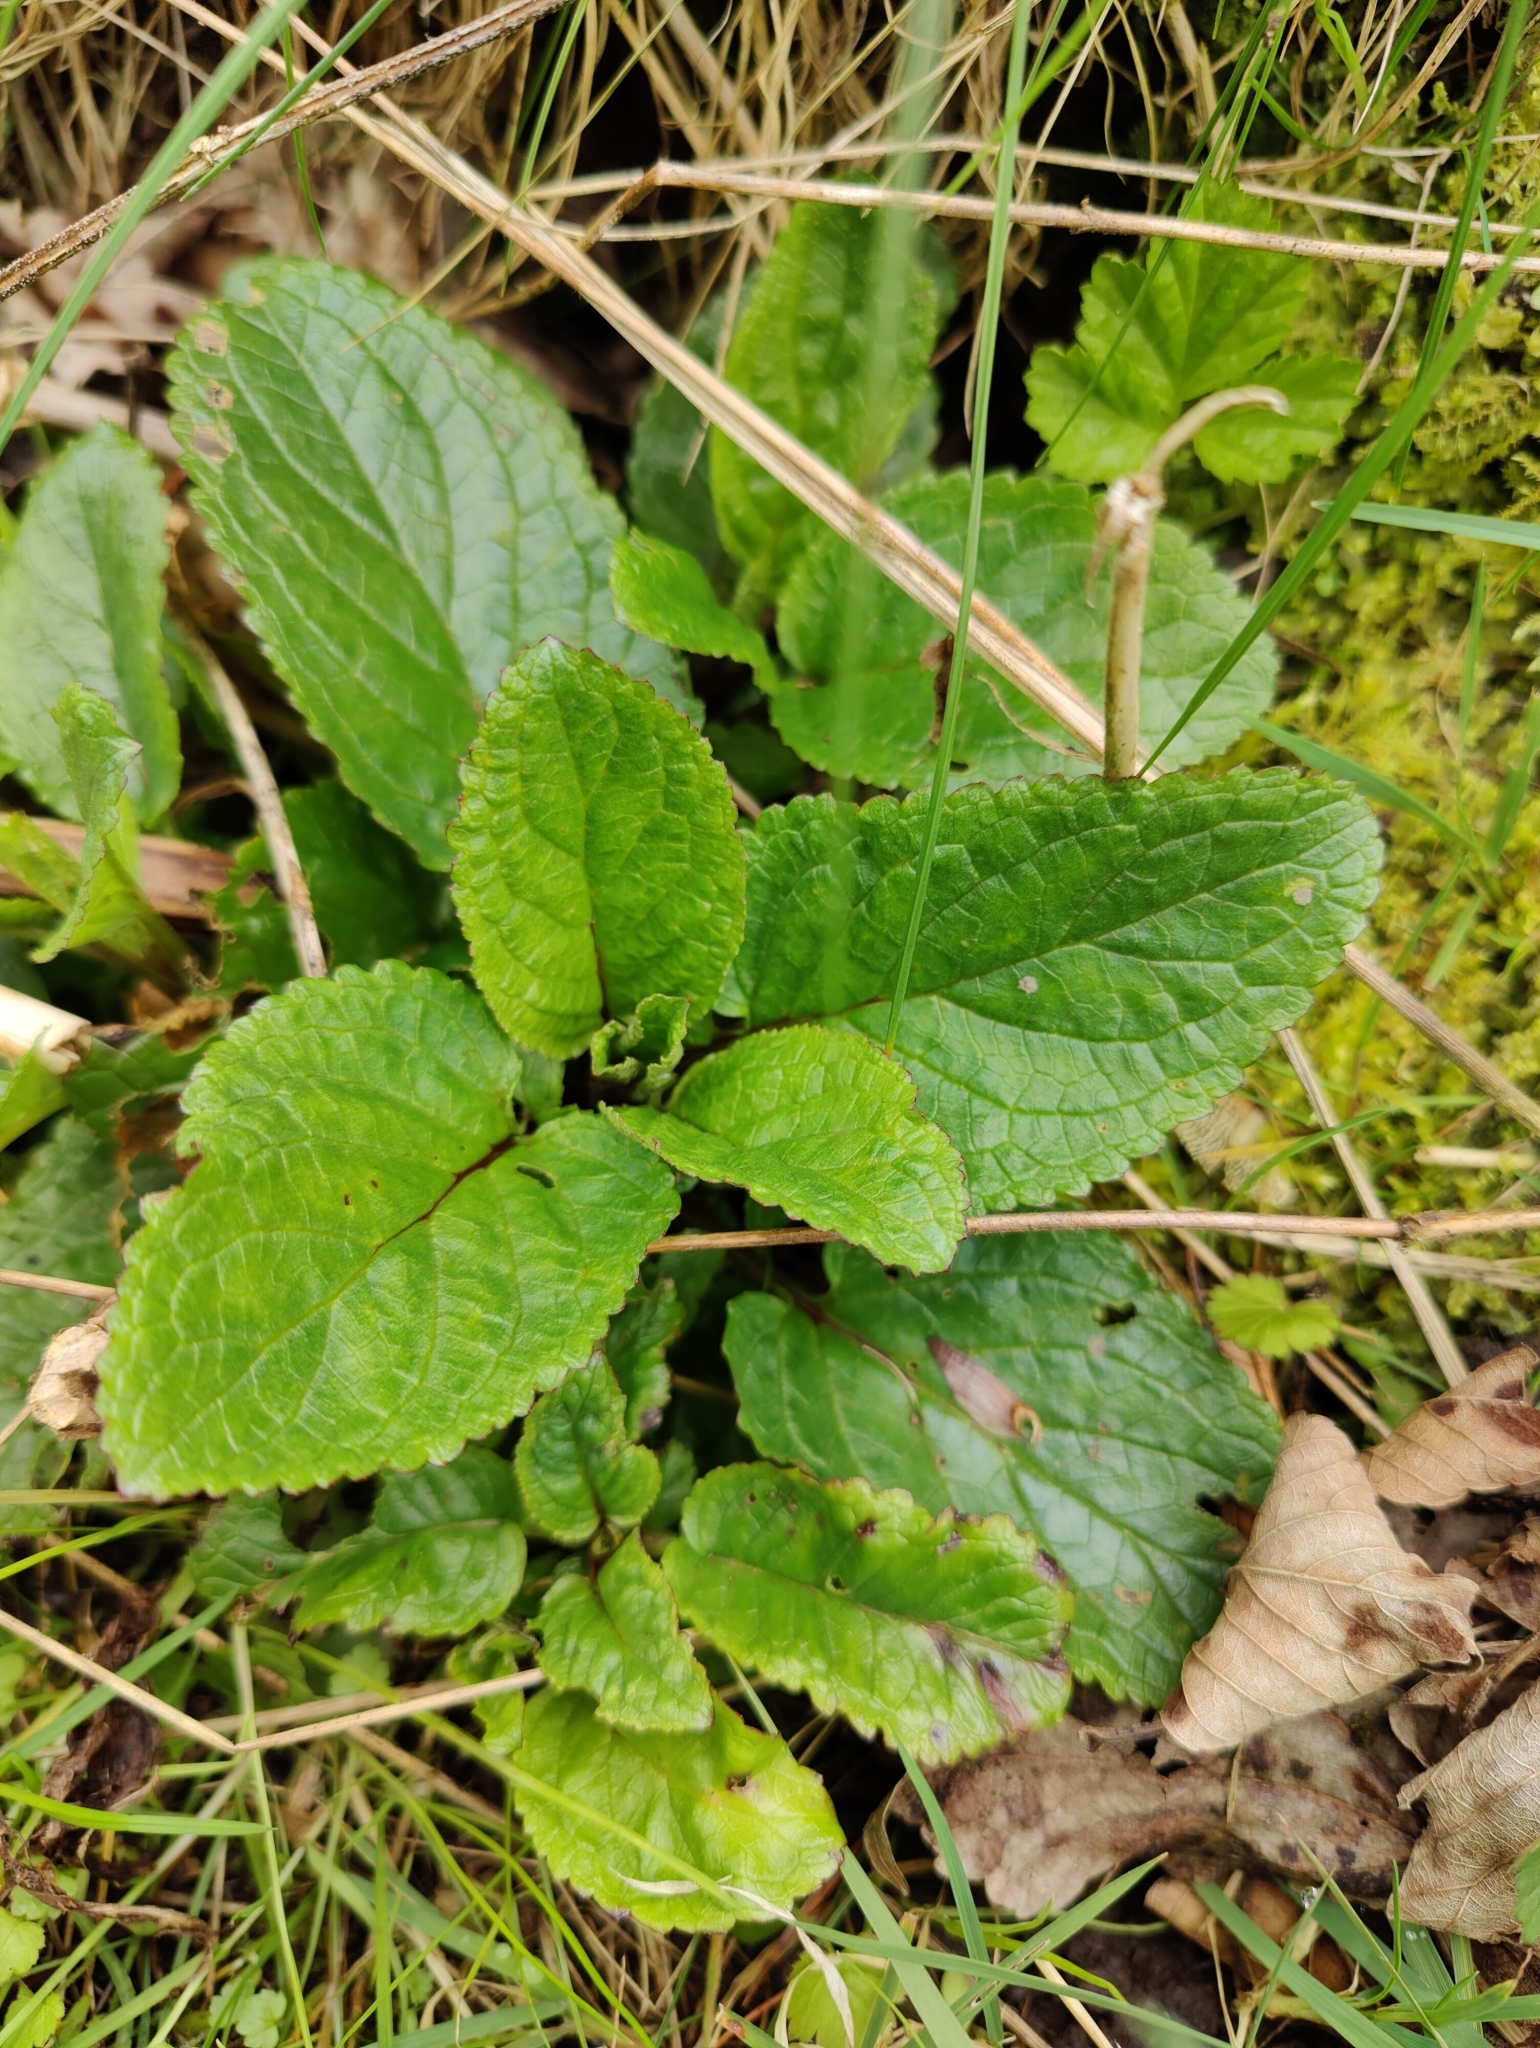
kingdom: Plantae
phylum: Tracheophyta
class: Magnoliopsida
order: Lamiales
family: Scrophulariaceae
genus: Scrophularia
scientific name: Scrophularia auriculata
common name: Water betony
